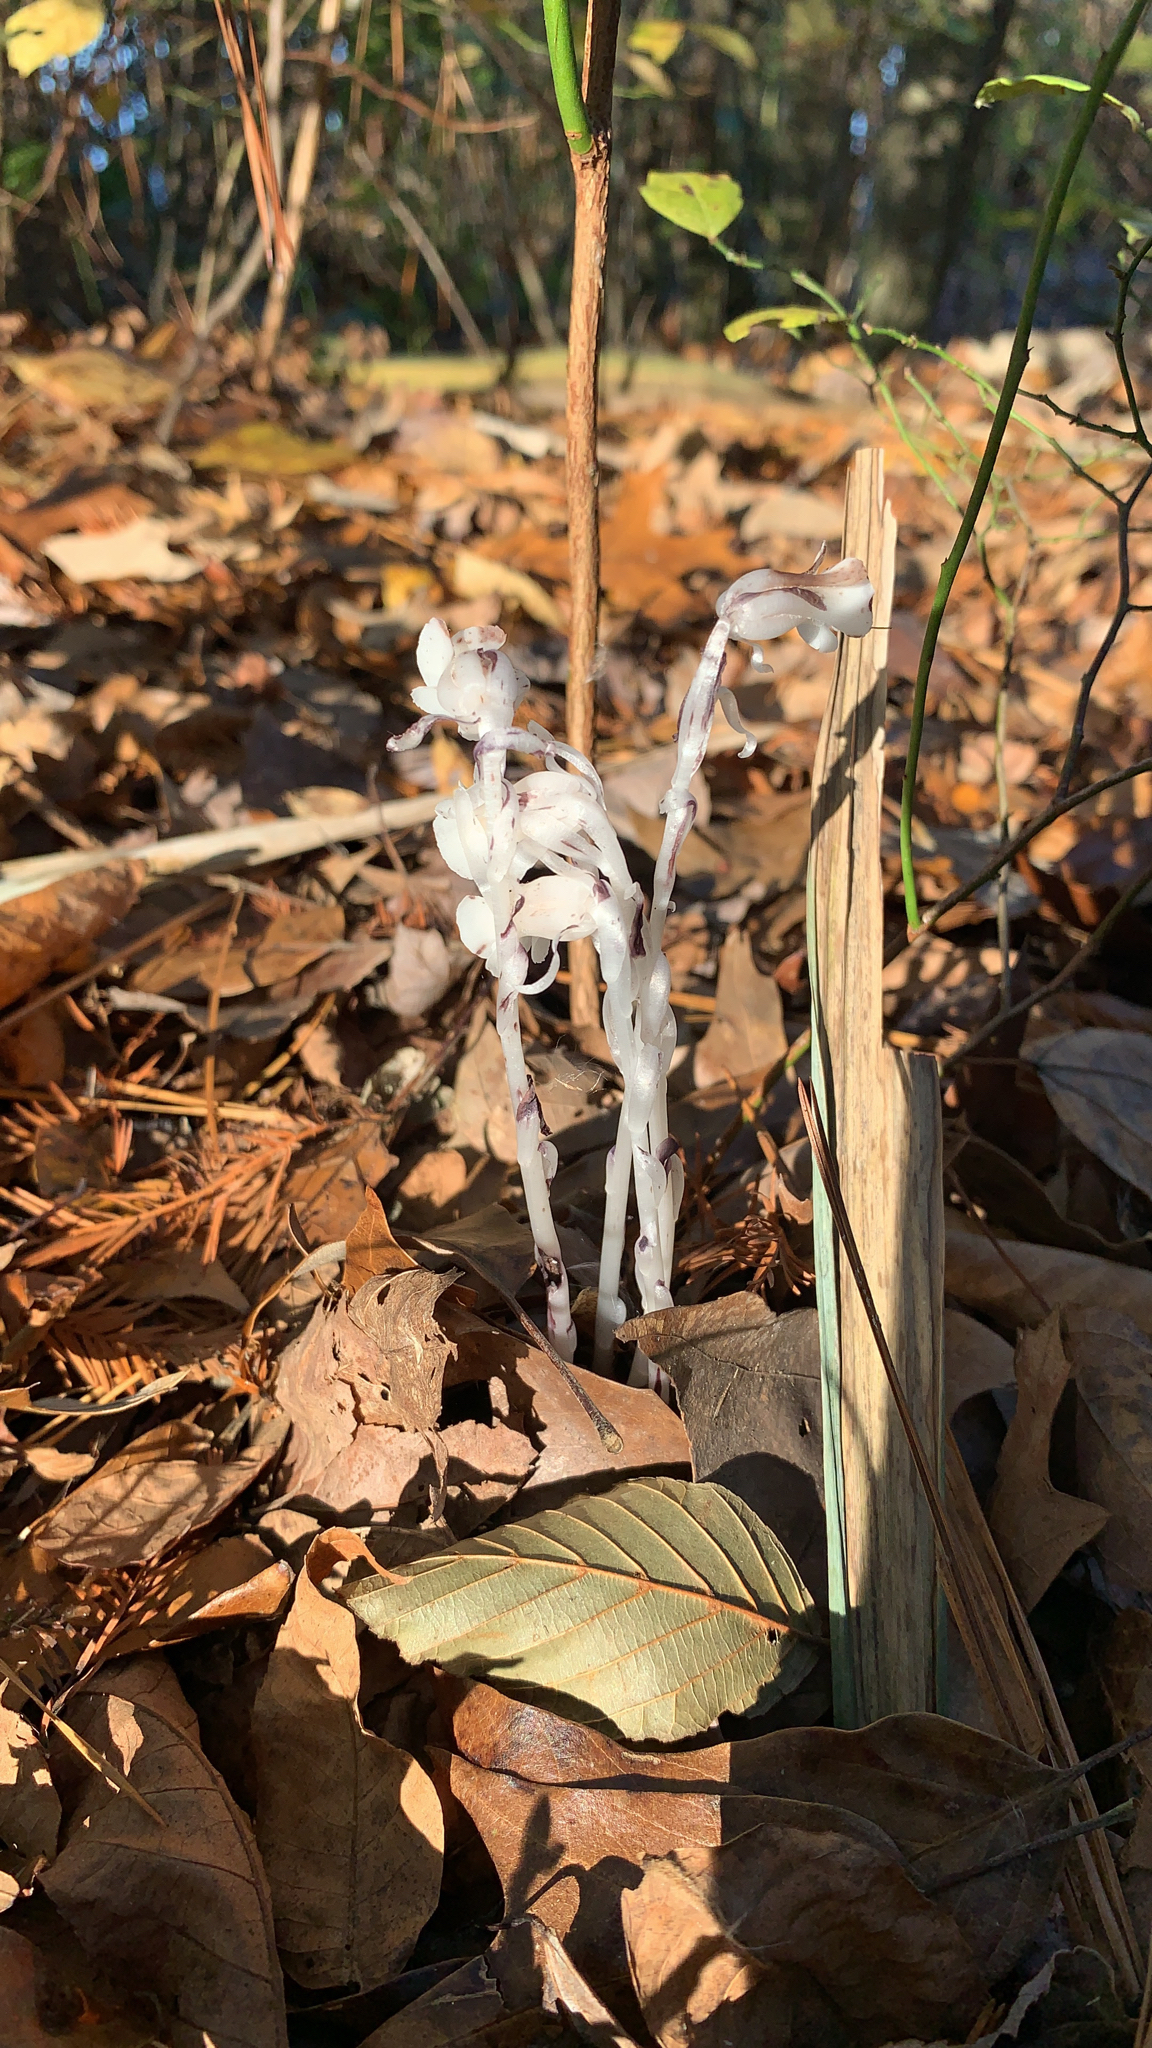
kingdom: Plantae
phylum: Tracheophyta
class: Magnoliopsida
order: Ericales
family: Ericaceae
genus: Monotropa
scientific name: Monotropa uniflora
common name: Convulsion root
